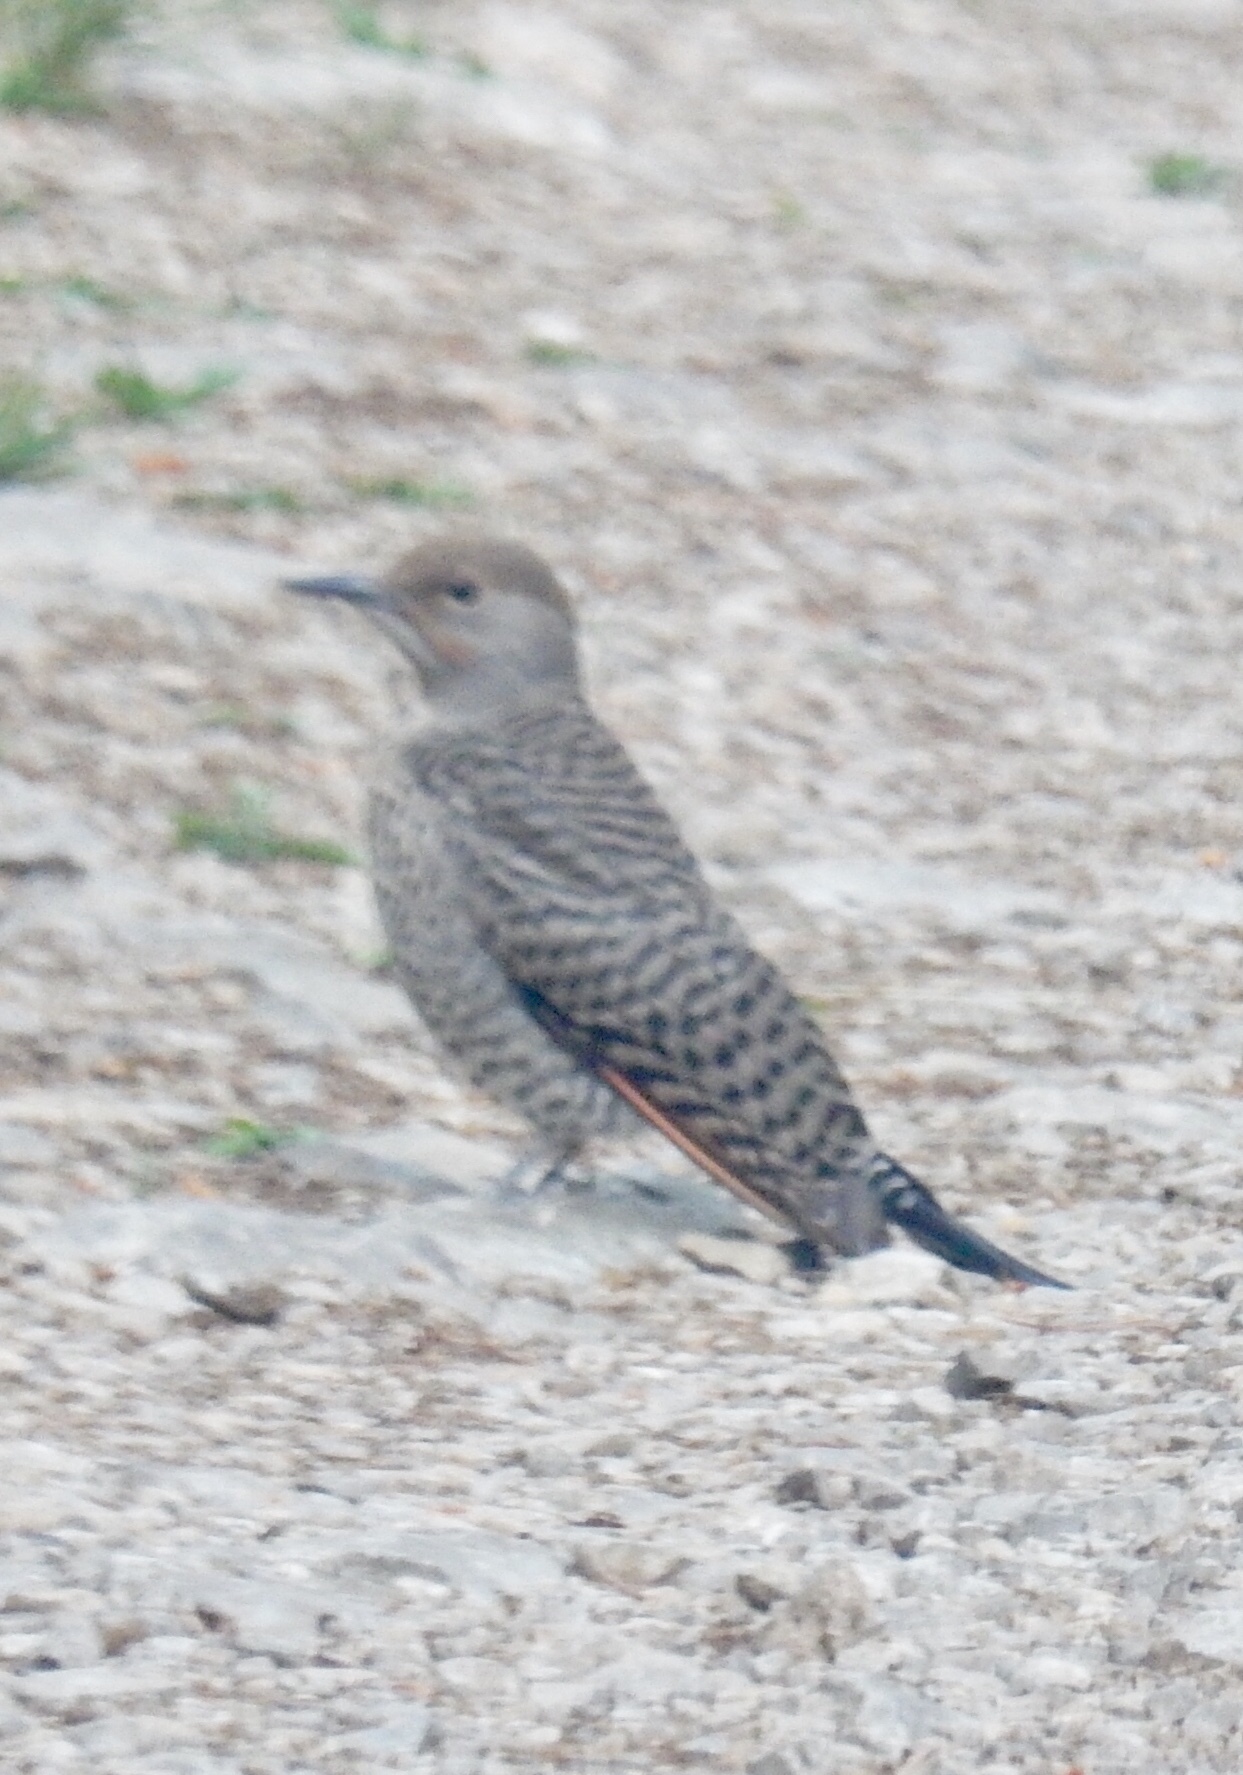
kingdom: Animalia
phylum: Chordata
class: Aves
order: Piciformes
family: Picidae
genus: Colaptes
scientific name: Colaptes auratus
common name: Northern flicker
